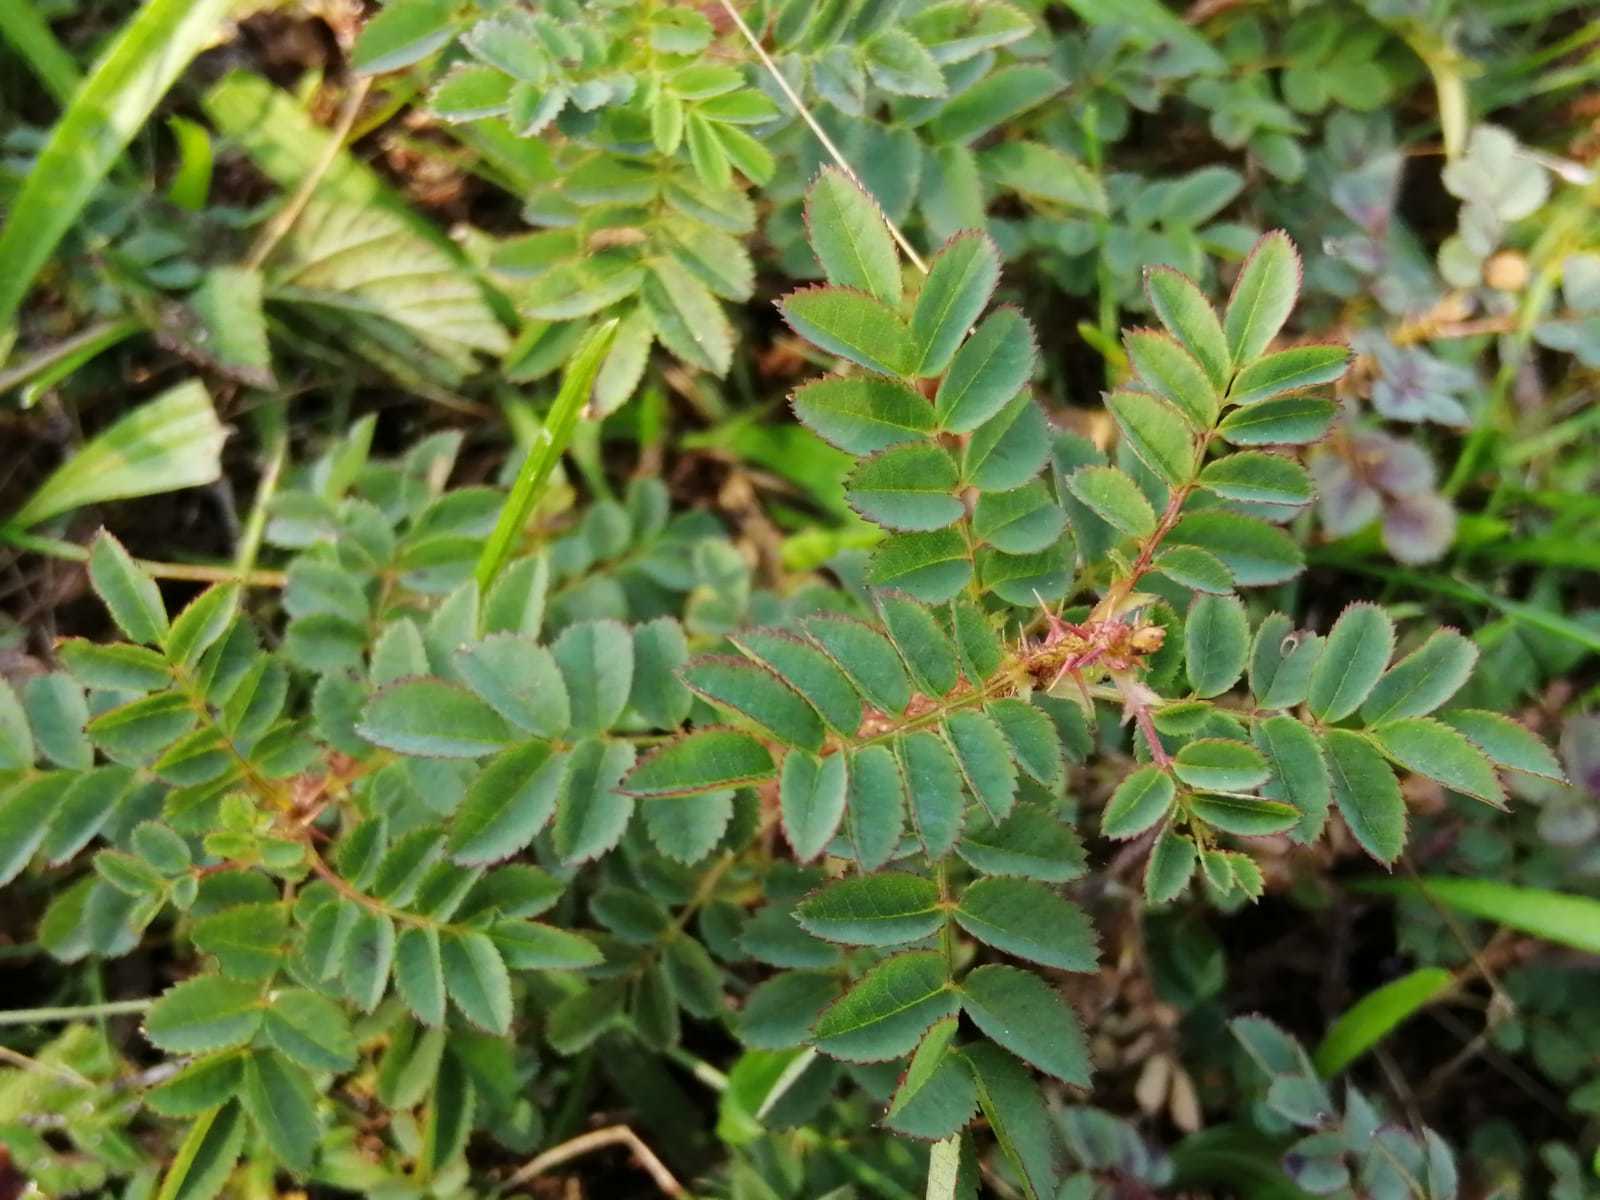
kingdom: Plantae
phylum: Tracheophyta
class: Magnoliopsida
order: Rosales
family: Rosaceae
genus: Rosa
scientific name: Rosa spinosissima
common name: Burnet rose
